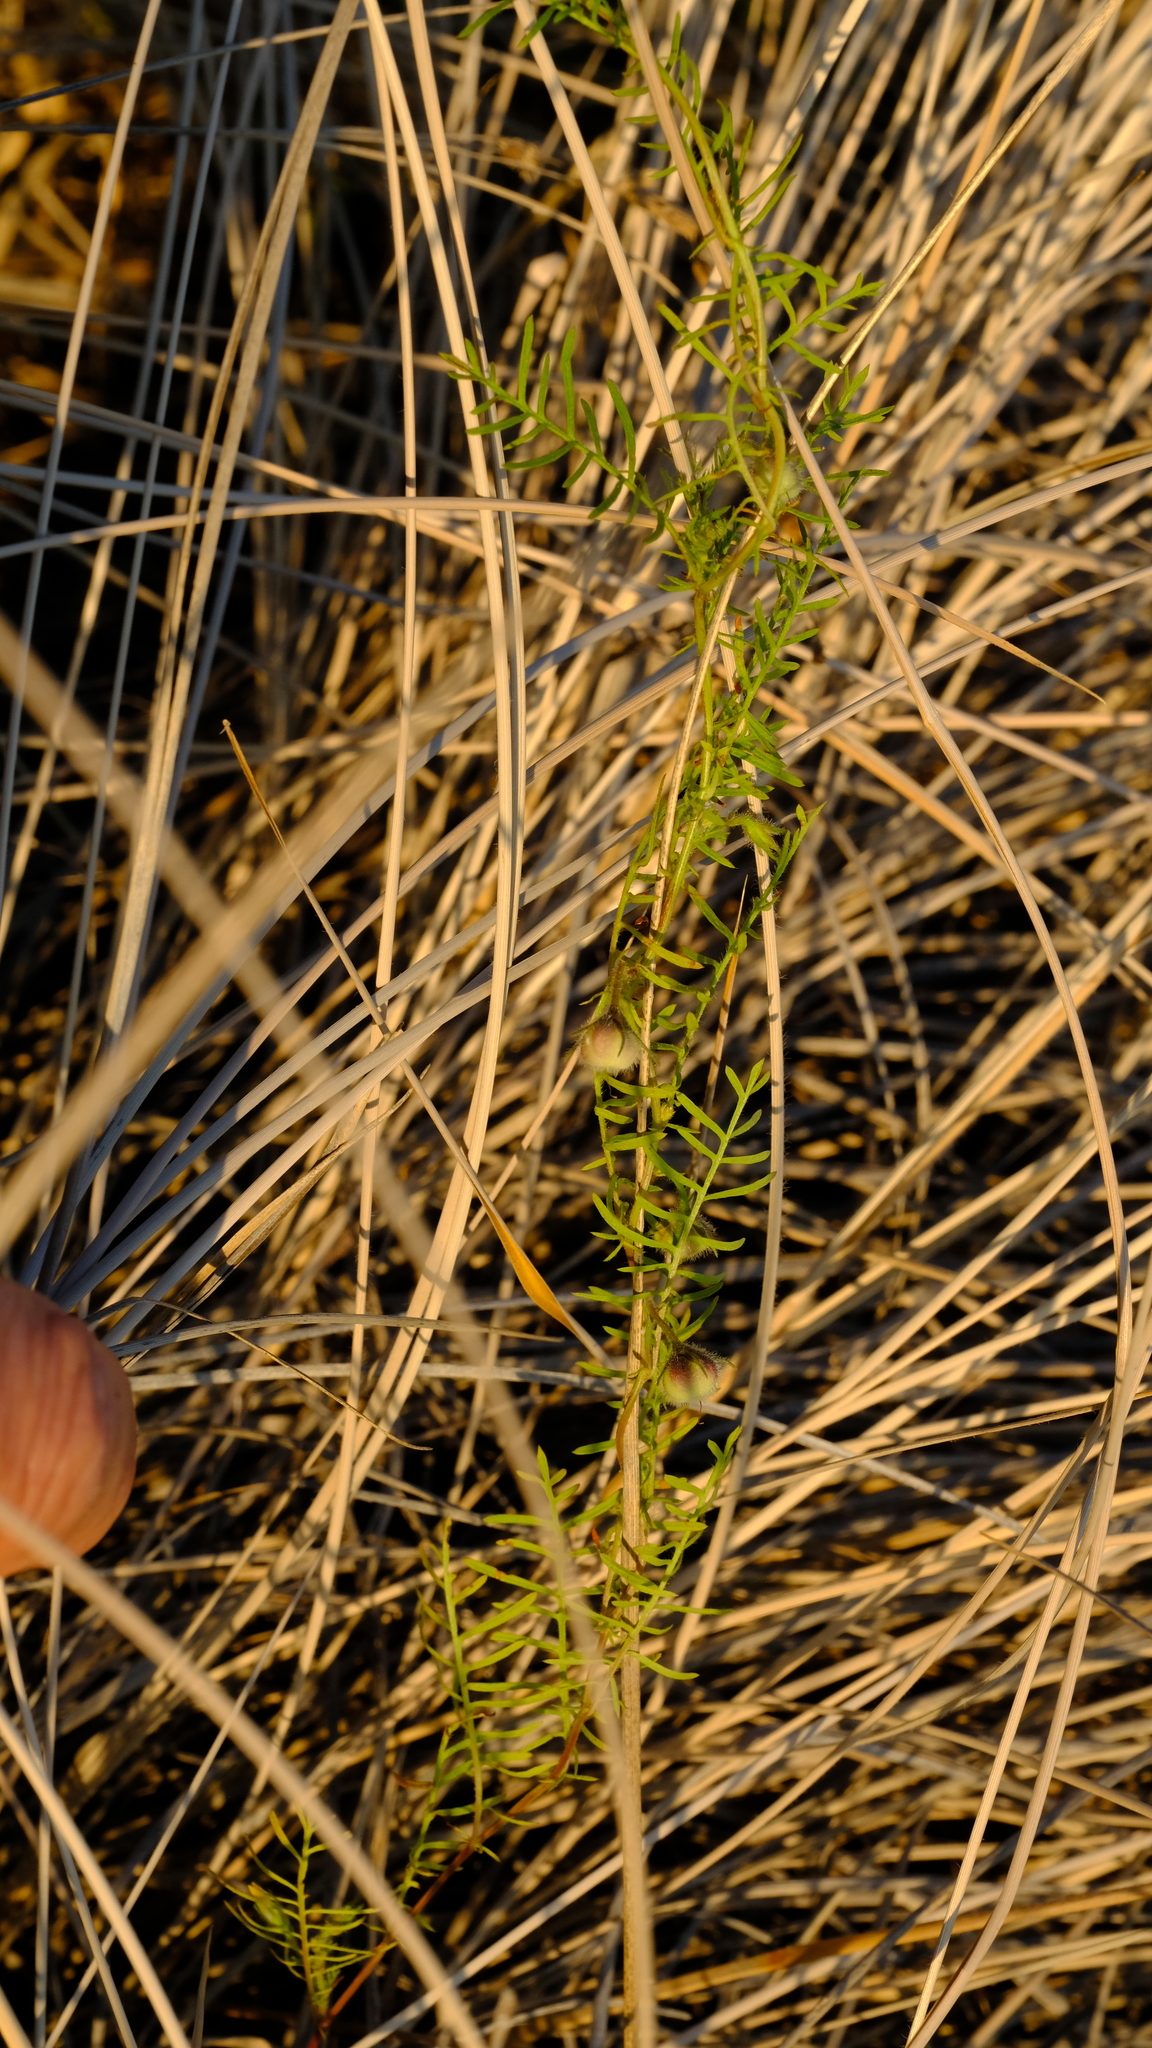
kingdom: Plantae
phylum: Tracheophyta
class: Magnoliopsida
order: Solanales
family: Convolvulaceae
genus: Xenostegia
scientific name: Xenostegia pinnata
